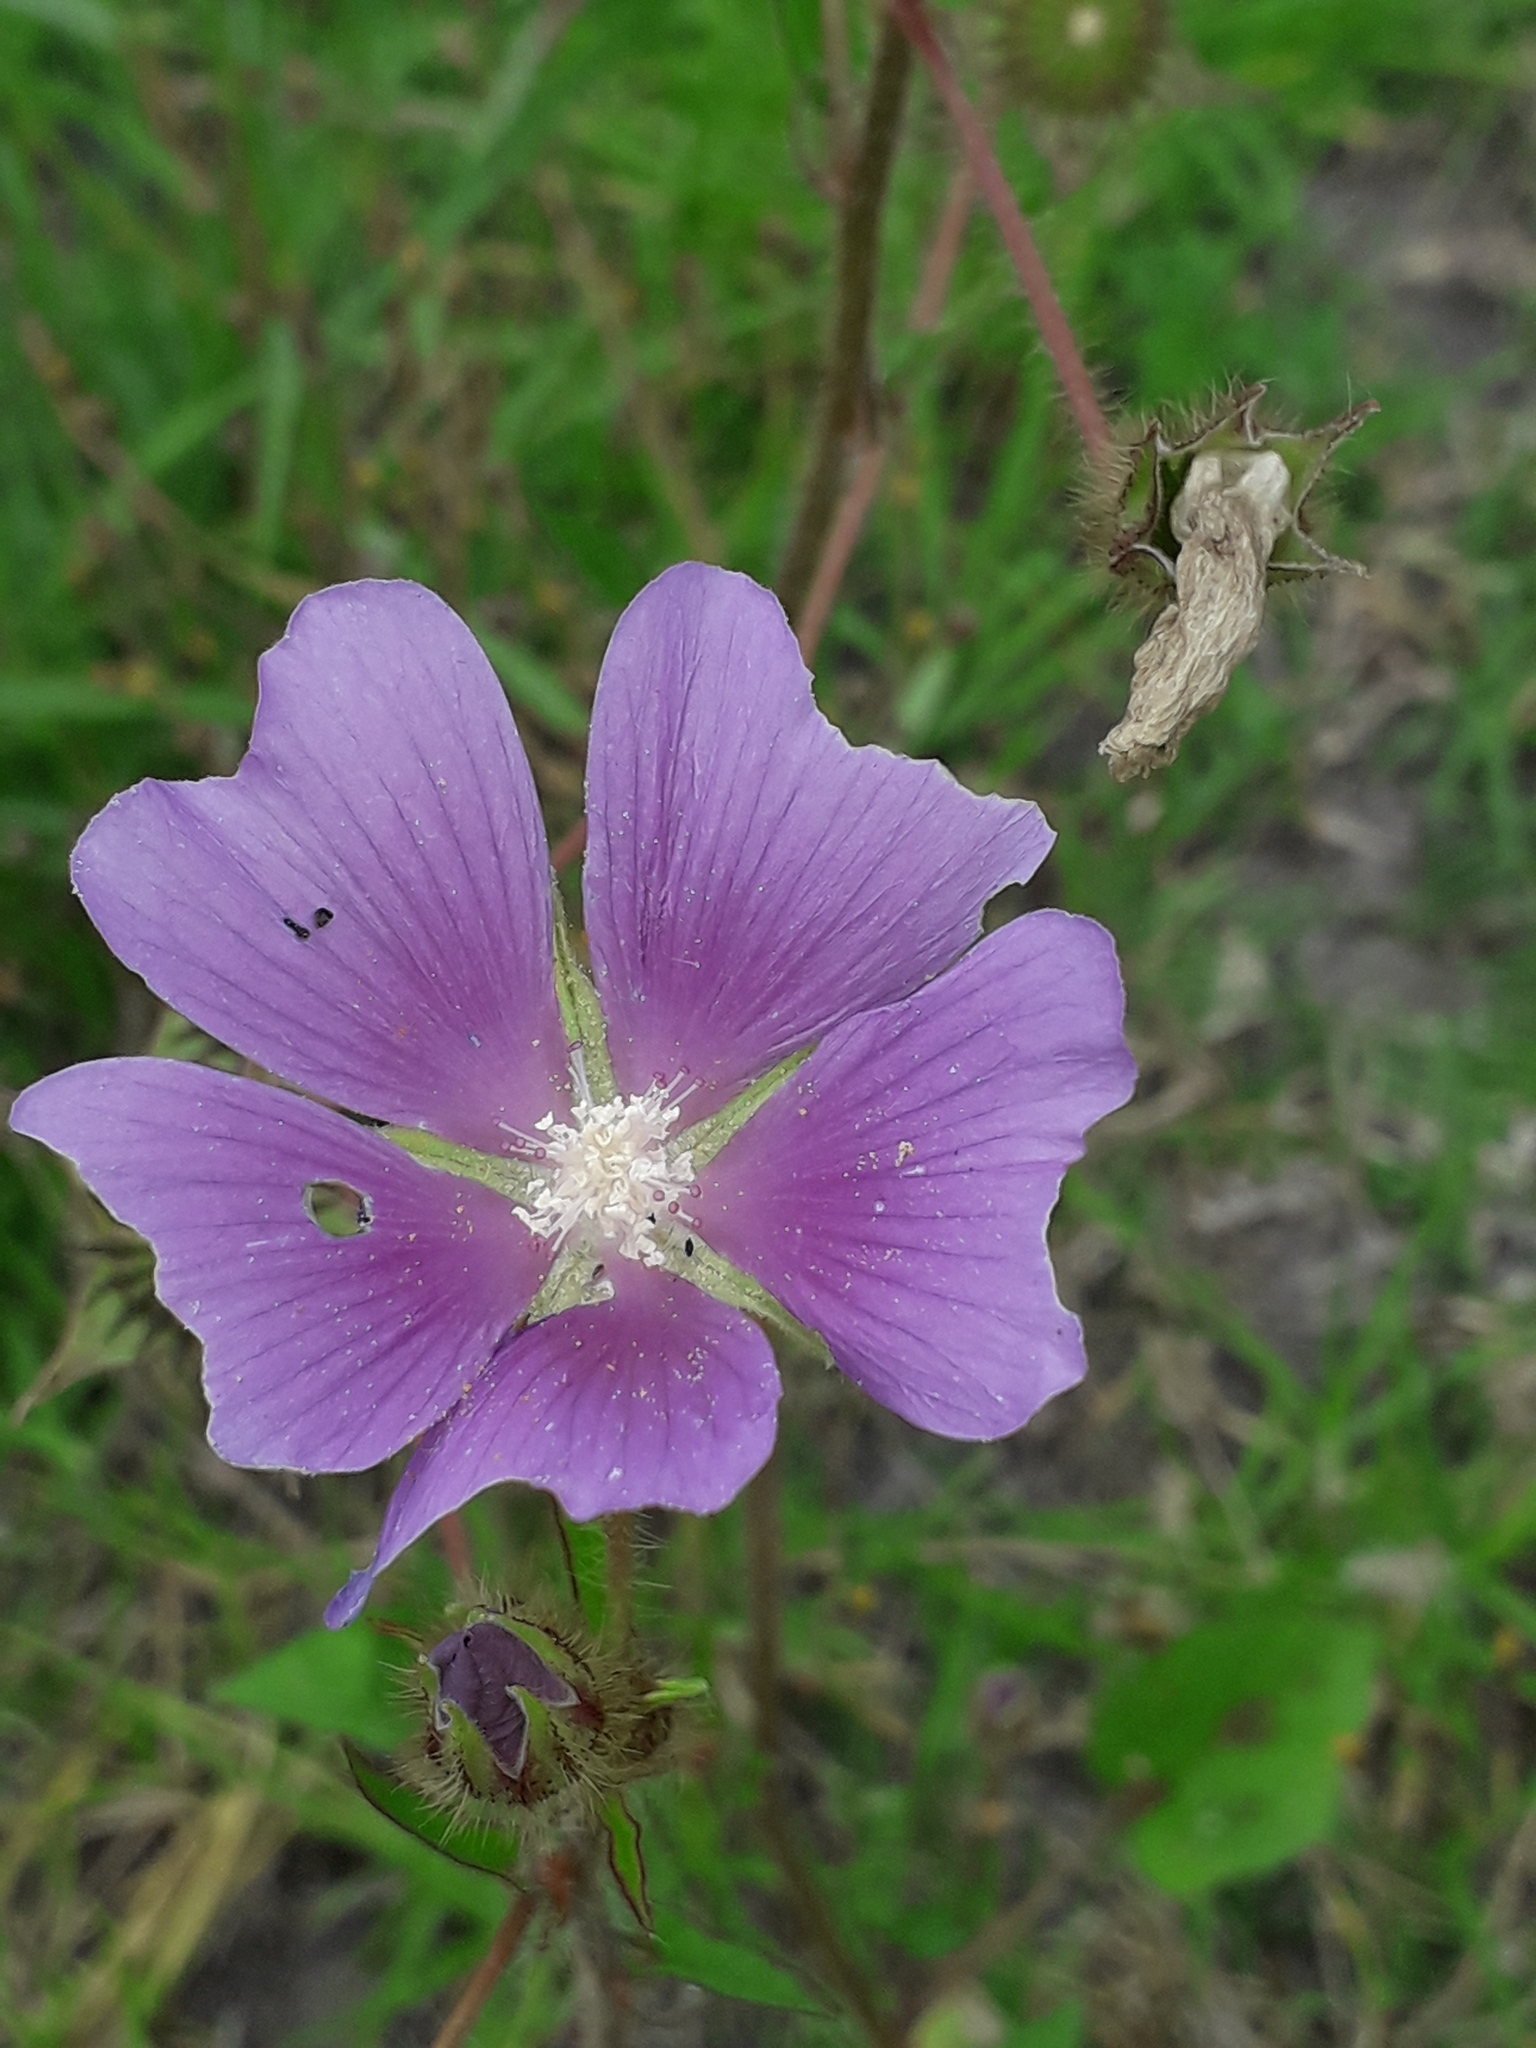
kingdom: Plantae
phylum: Tracheophyta
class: Magnoliopsida
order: Malvales
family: Malvaceae
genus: Anoda
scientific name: Anoda cristata
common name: Spurred anoda
